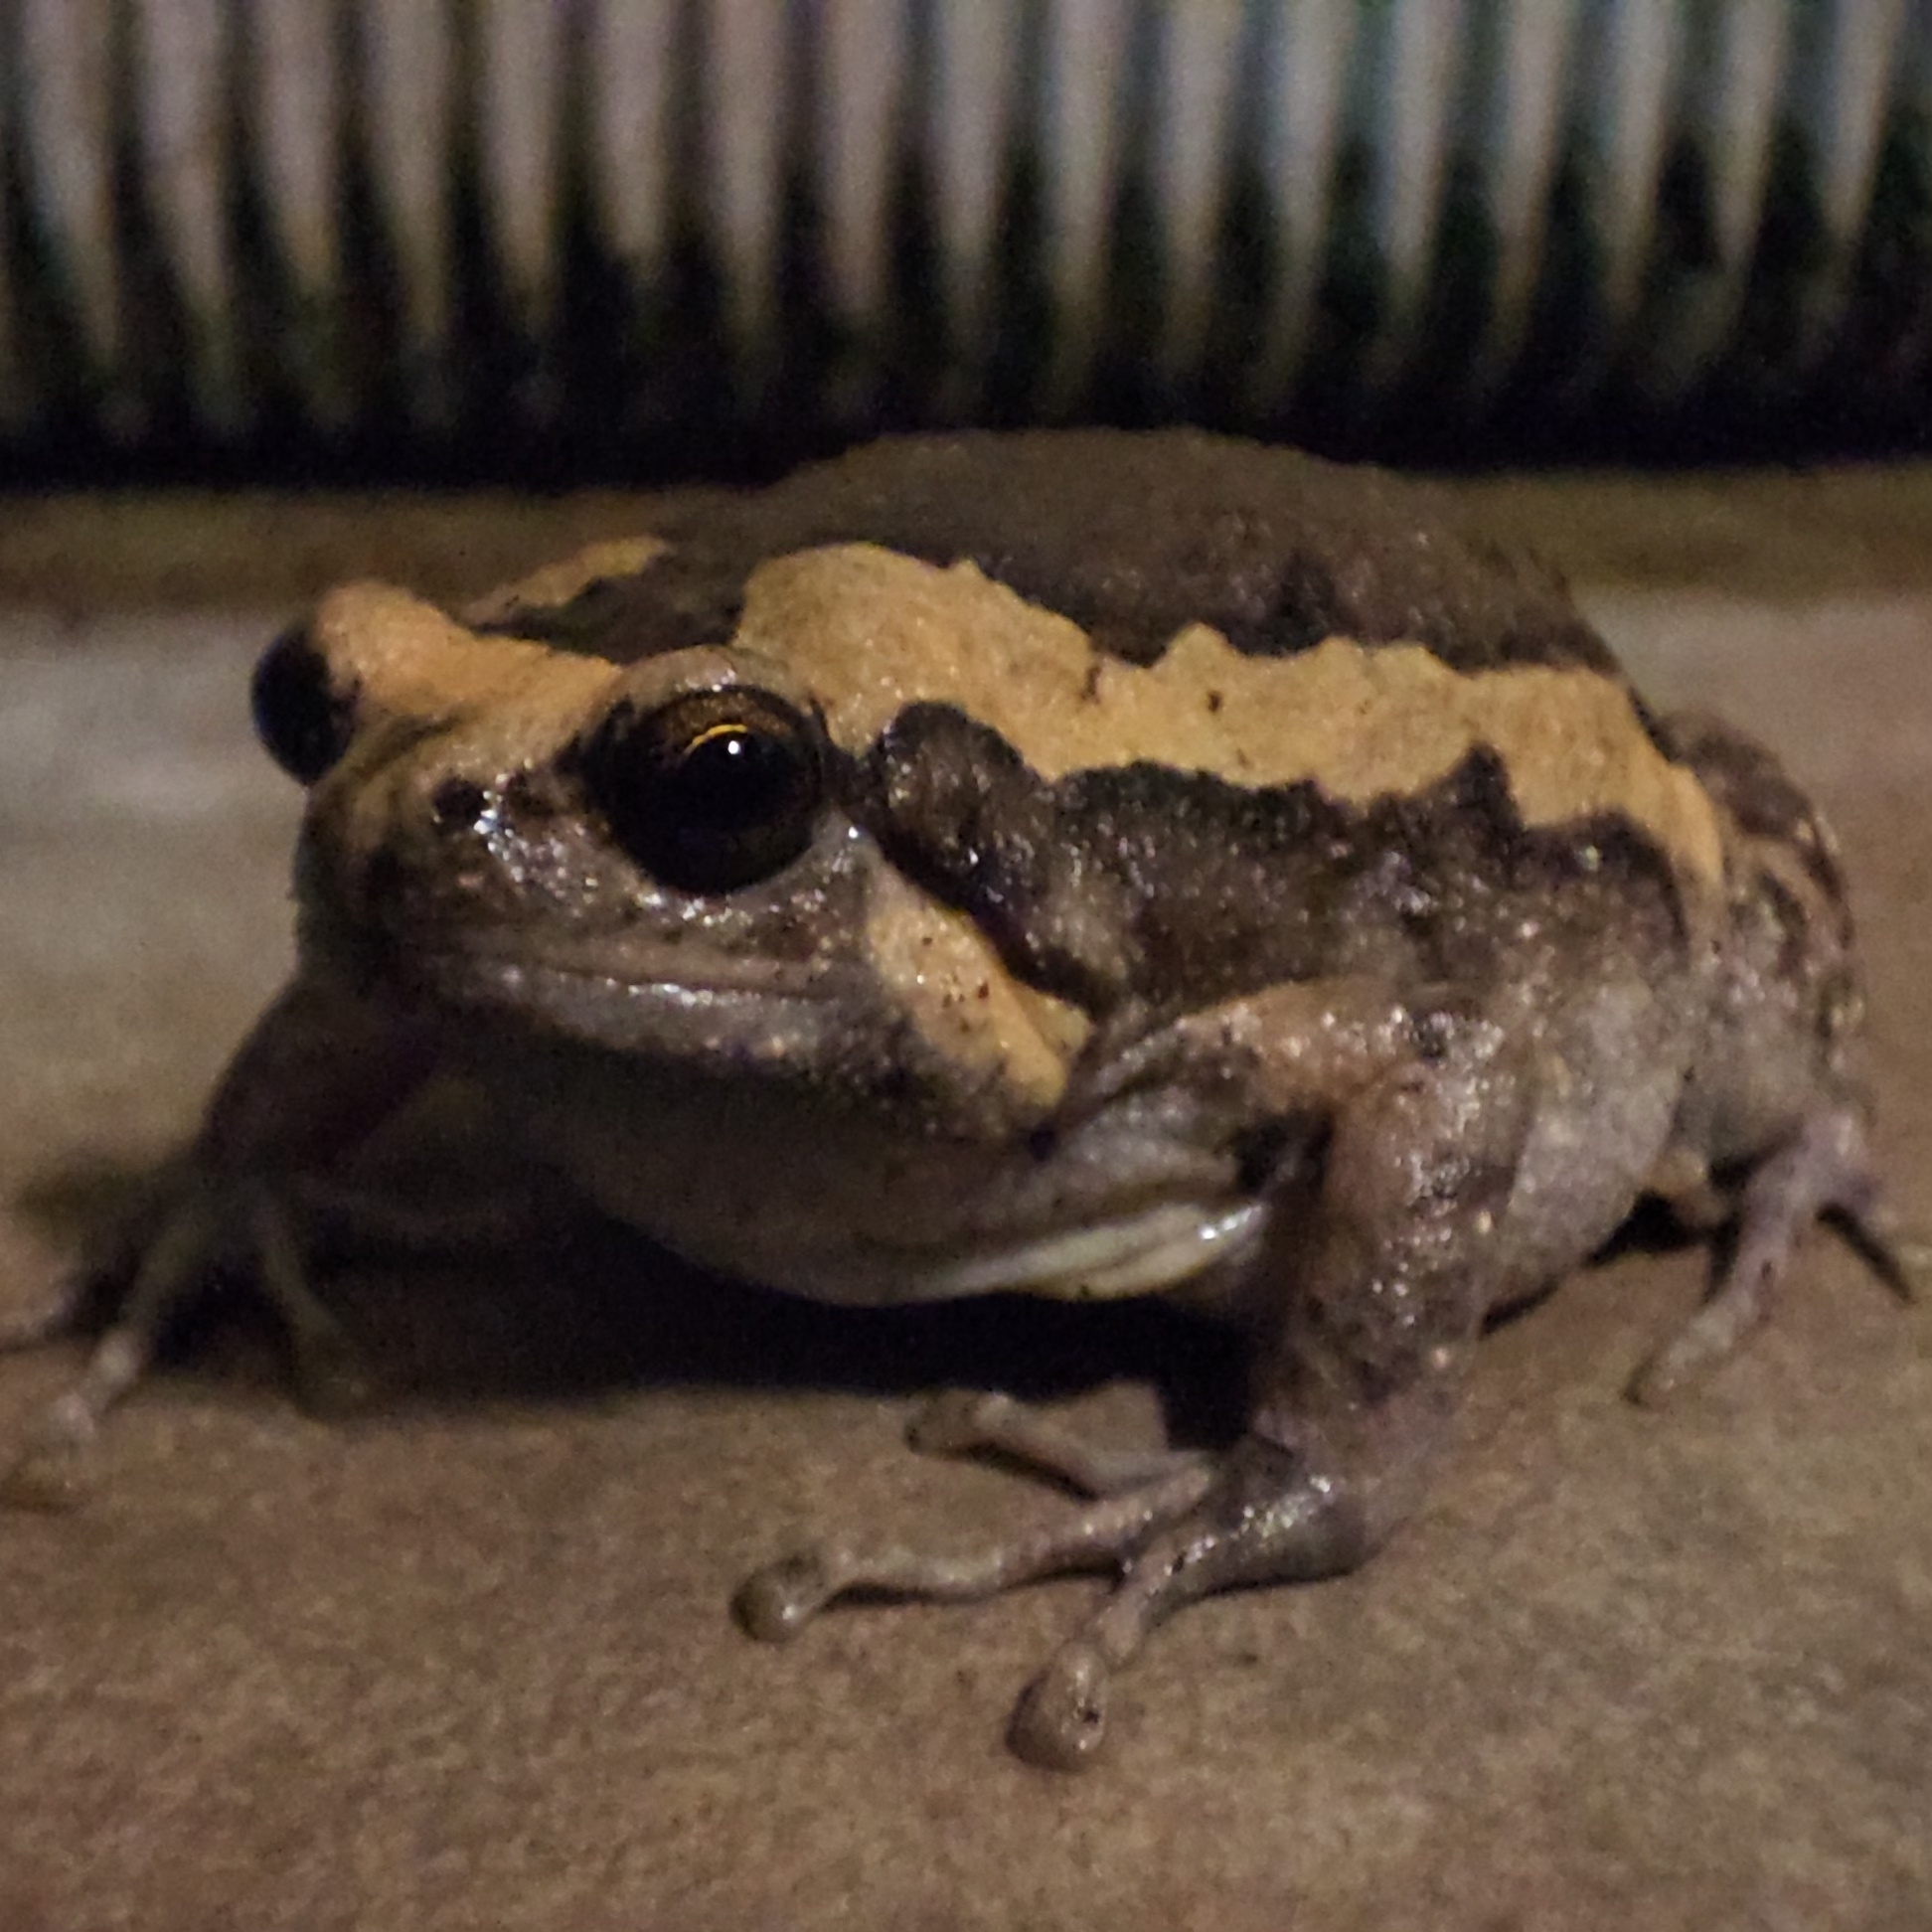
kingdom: Animalia
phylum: Chordata
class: Amphibia
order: Anura
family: Microhylidae
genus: Kaloula
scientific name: Kaloula pulchra
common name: Common,banded bullfrog
